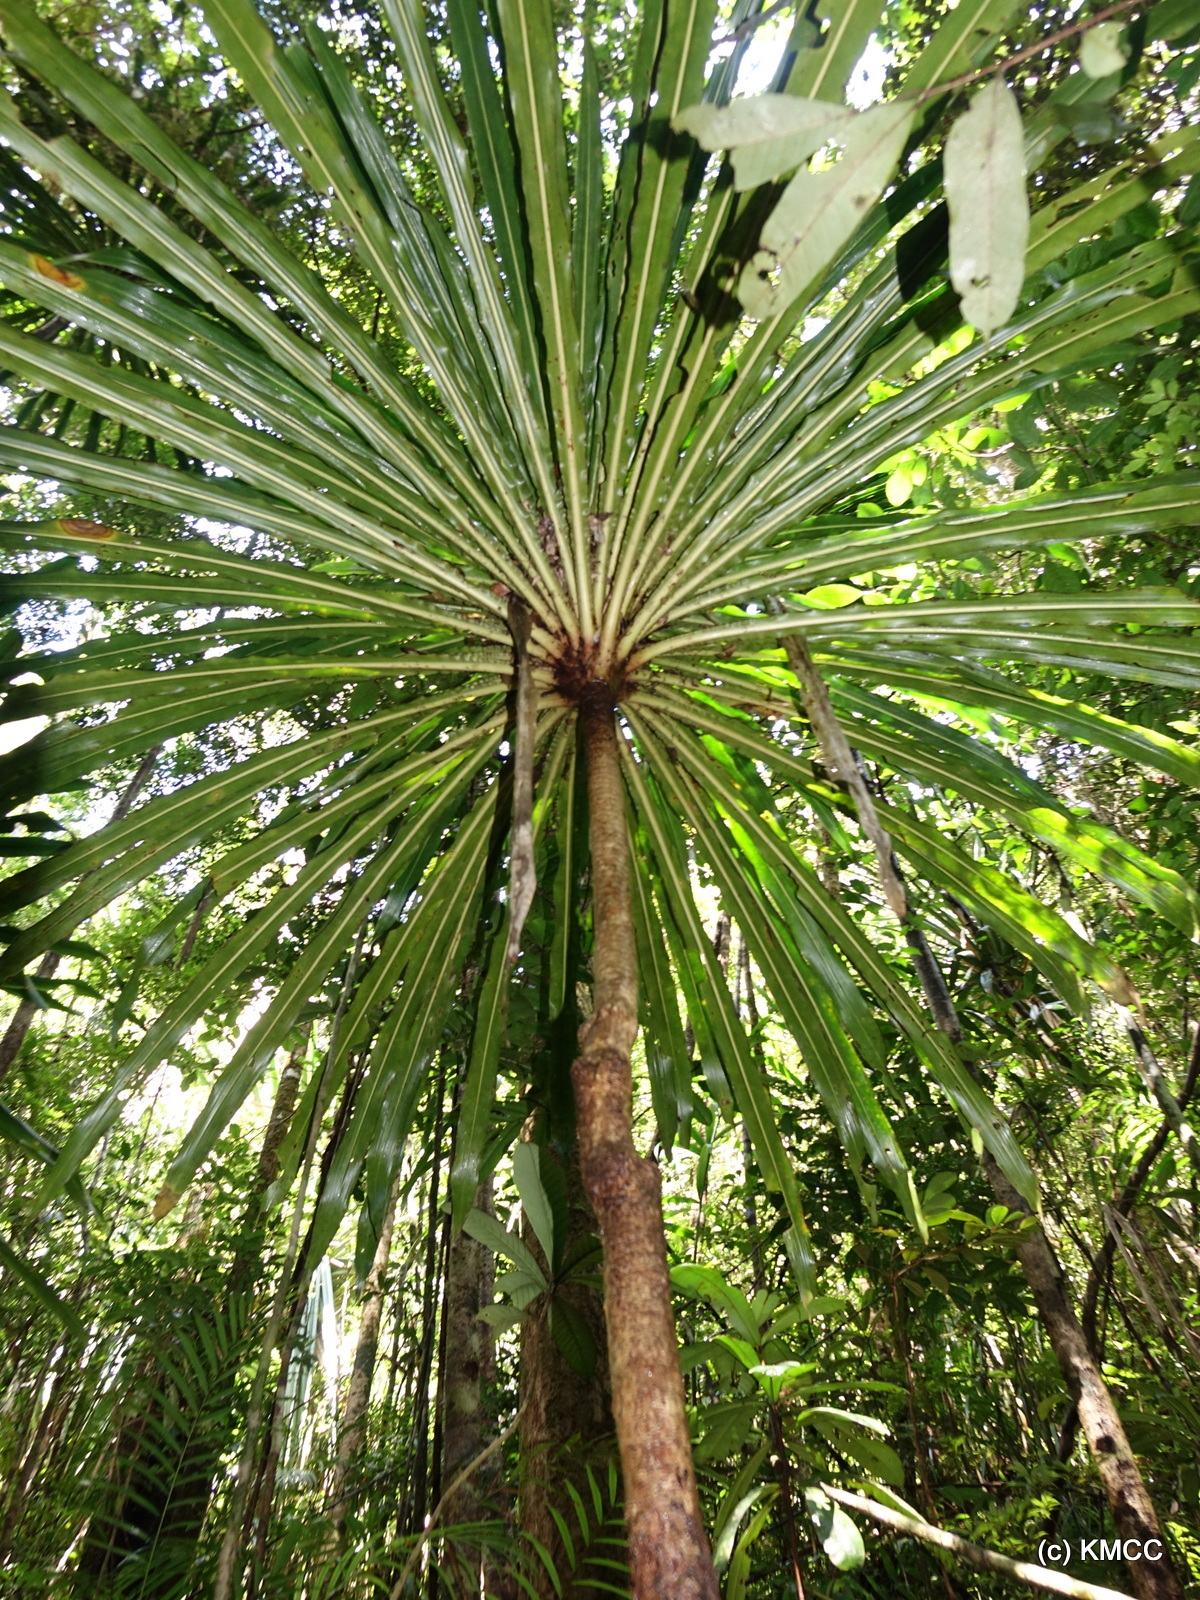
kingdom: Plantae
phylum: Tracheophyta
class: Liliopsida
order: Asparagales
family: Asparagaceae
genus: Dracaena
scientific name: Dracaena xiphophylla
